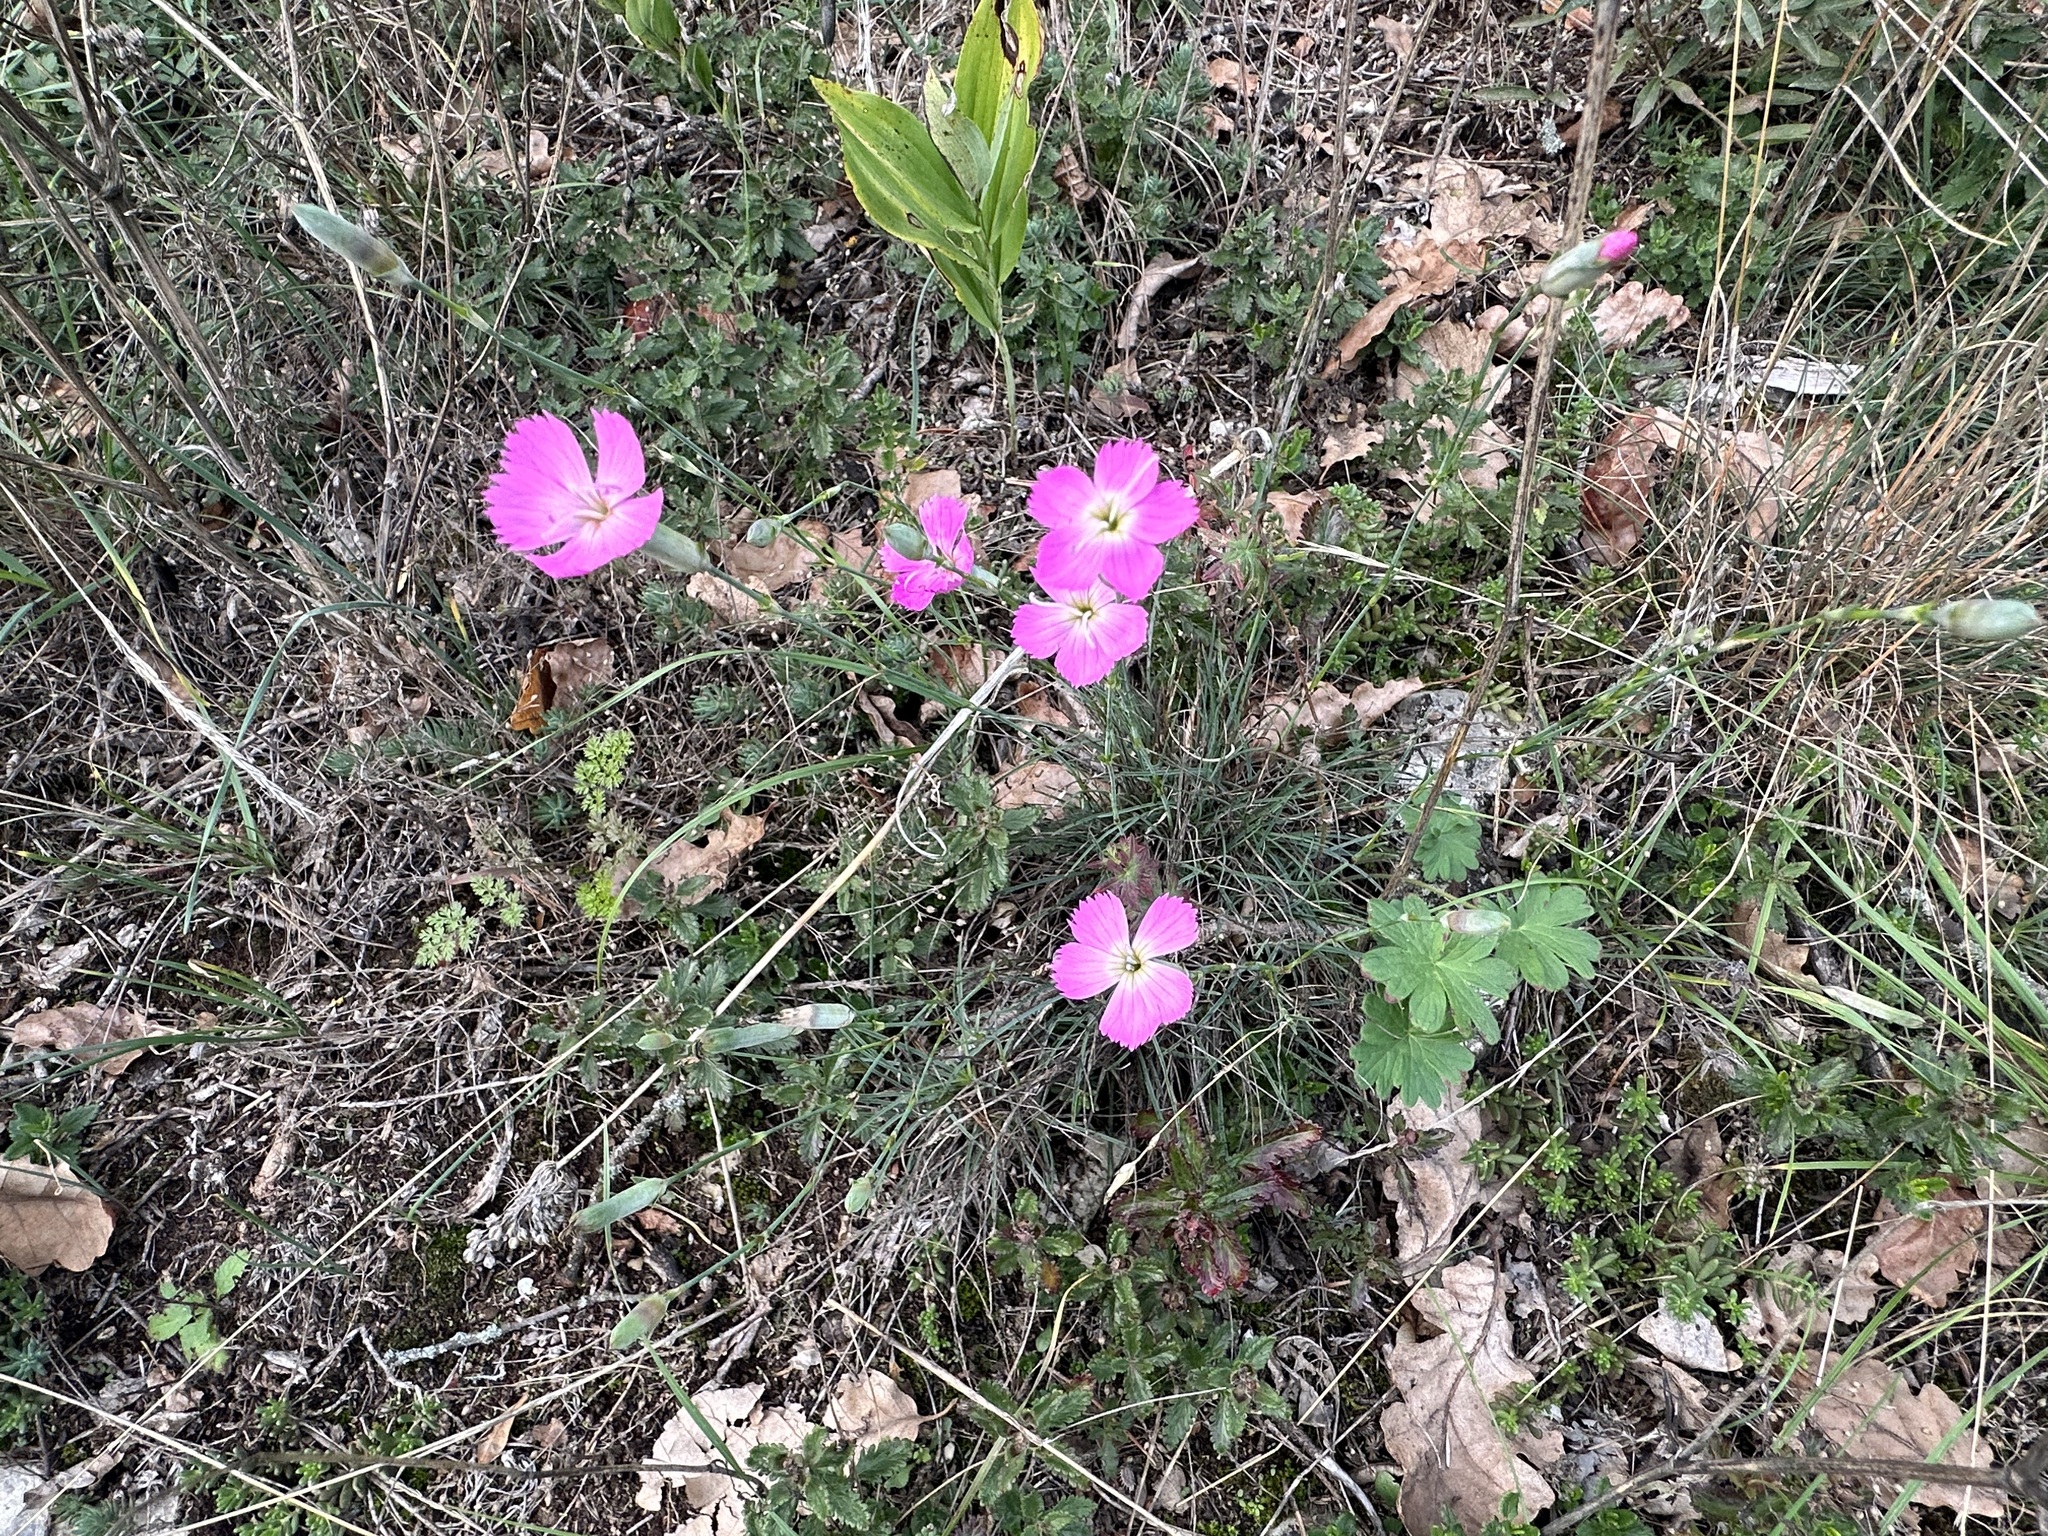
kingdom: Plantae
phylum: Tracheophyta
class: Magnoliopsida
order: Caryophyllales
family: Caryophyllaceae
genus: Dianthus
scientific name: Dianthus sylvestris
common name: Wood pink
